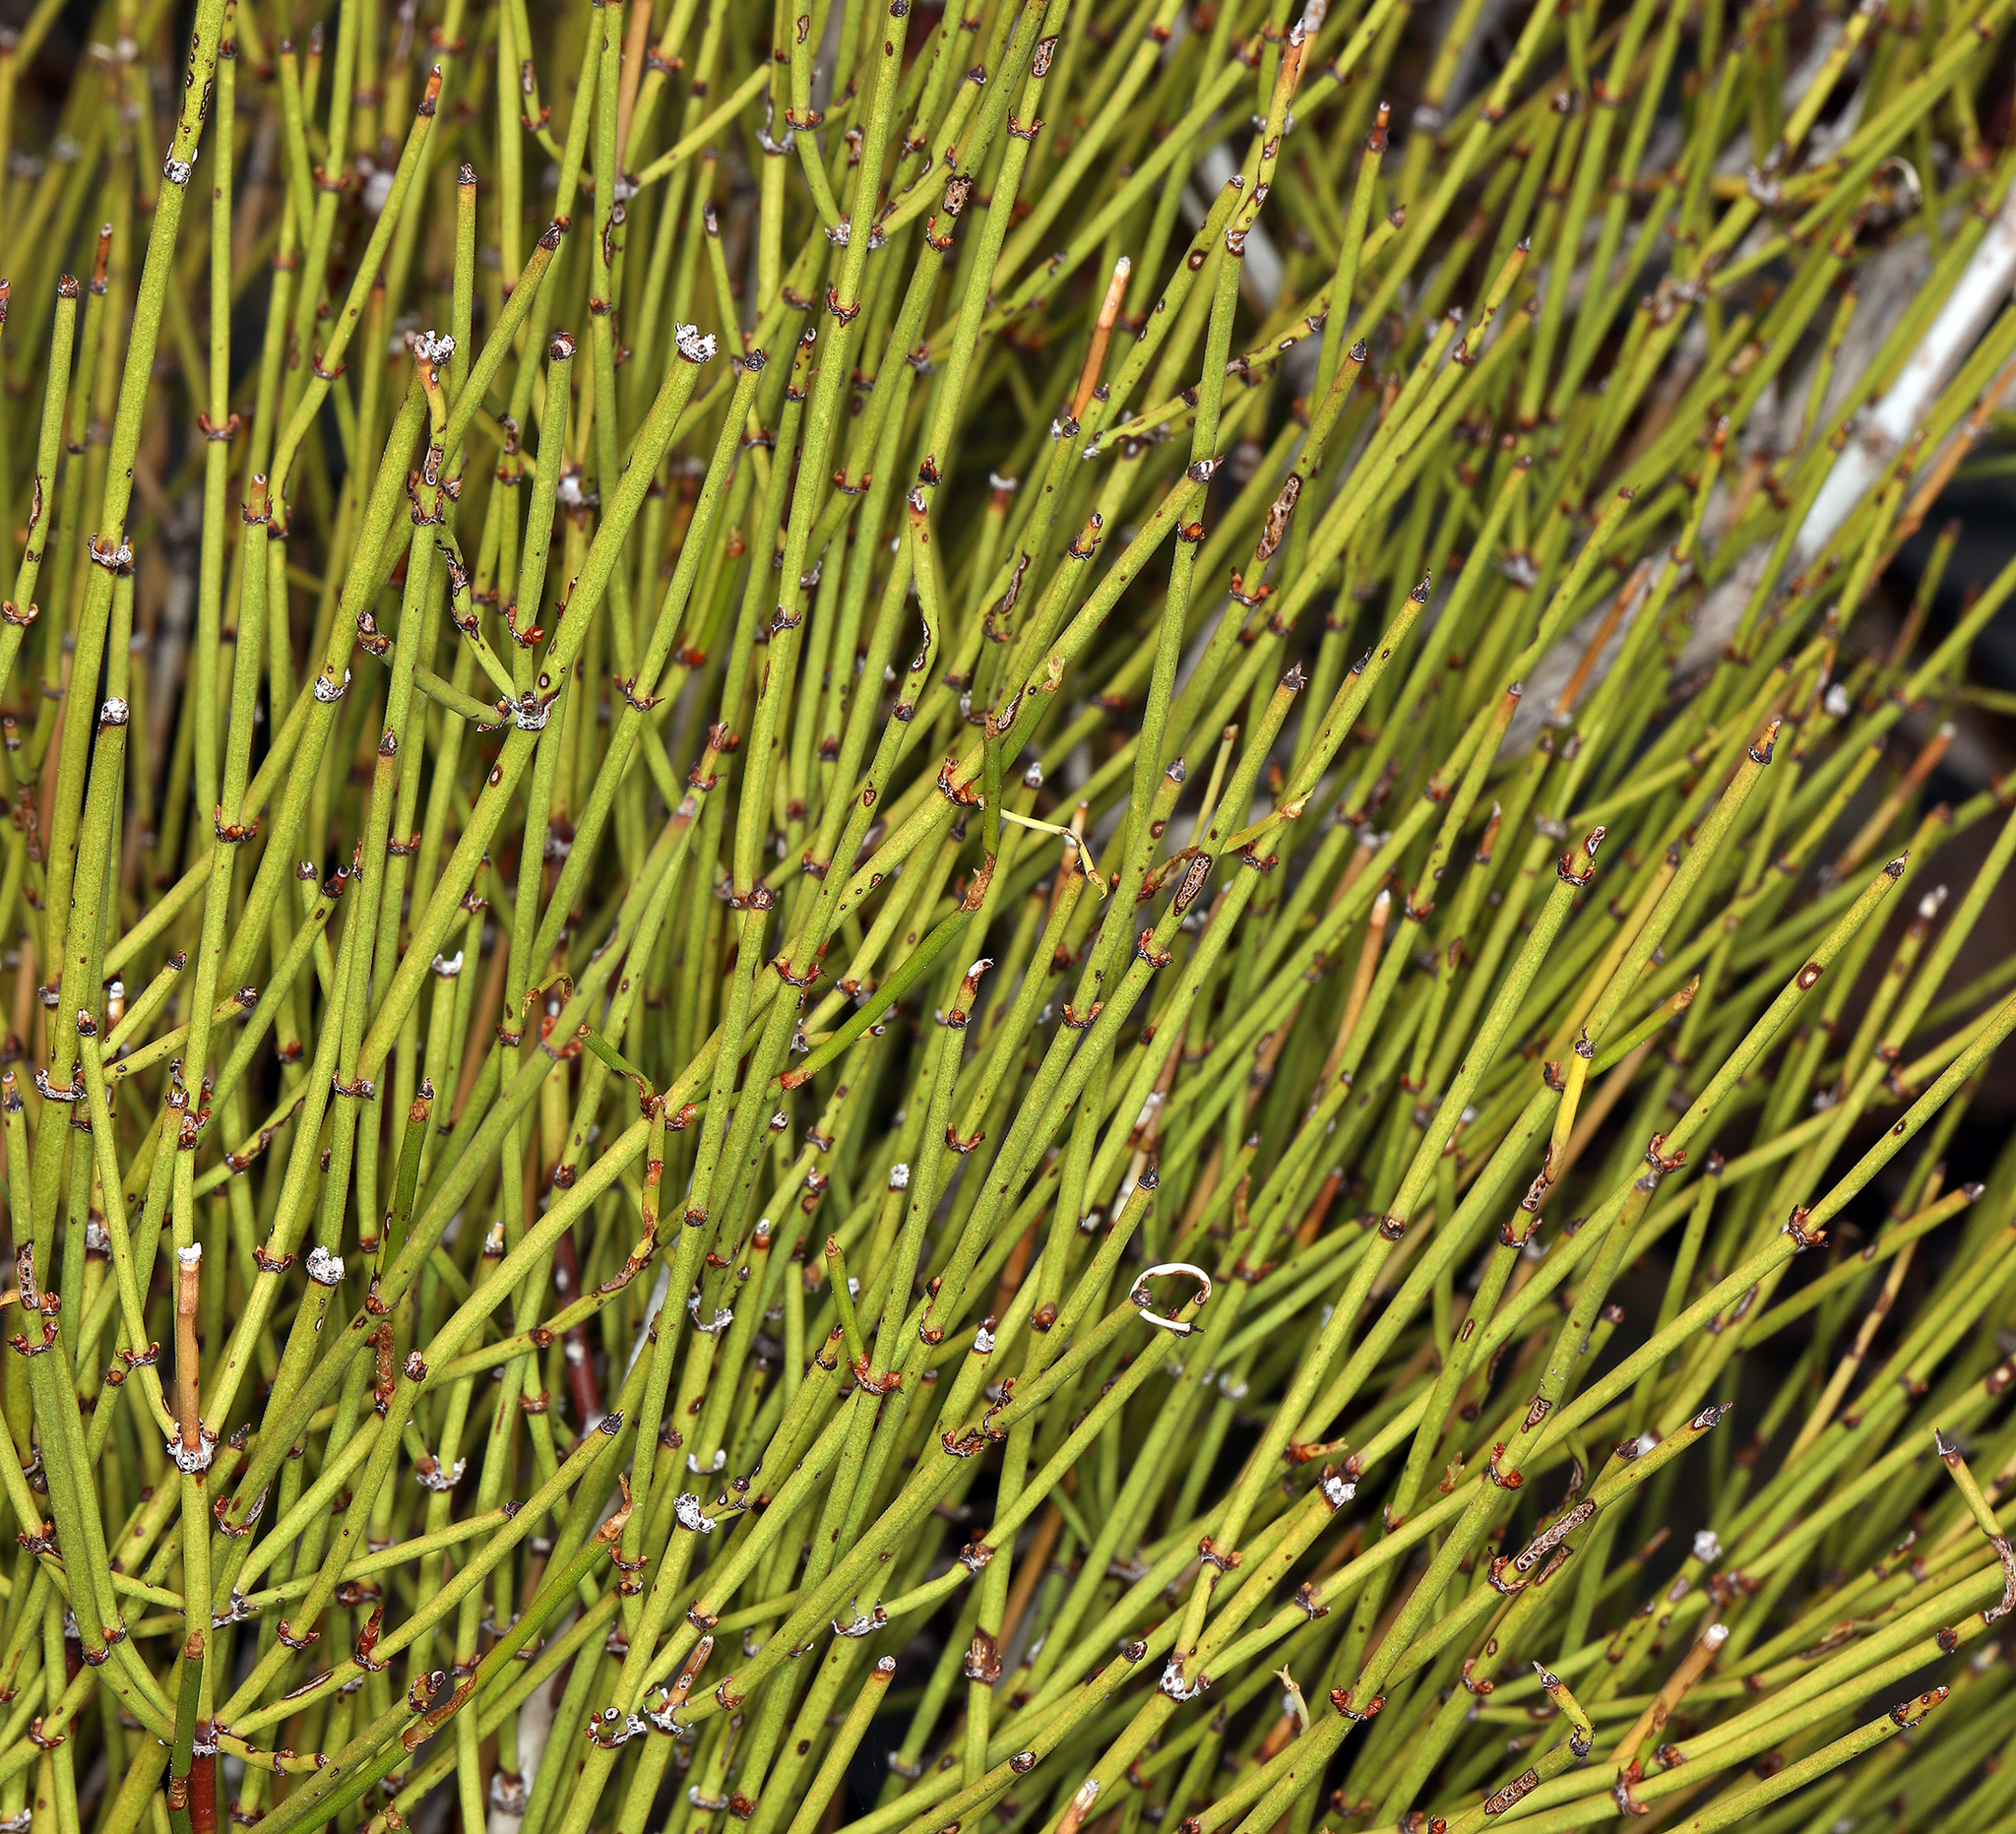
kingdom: Plantae
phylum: Tracheophyta
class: Gnetopsida
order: Ephedrales
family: Ephedraceae
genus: Ephedra
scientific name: Ephedra viridis
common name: Green ephedra
